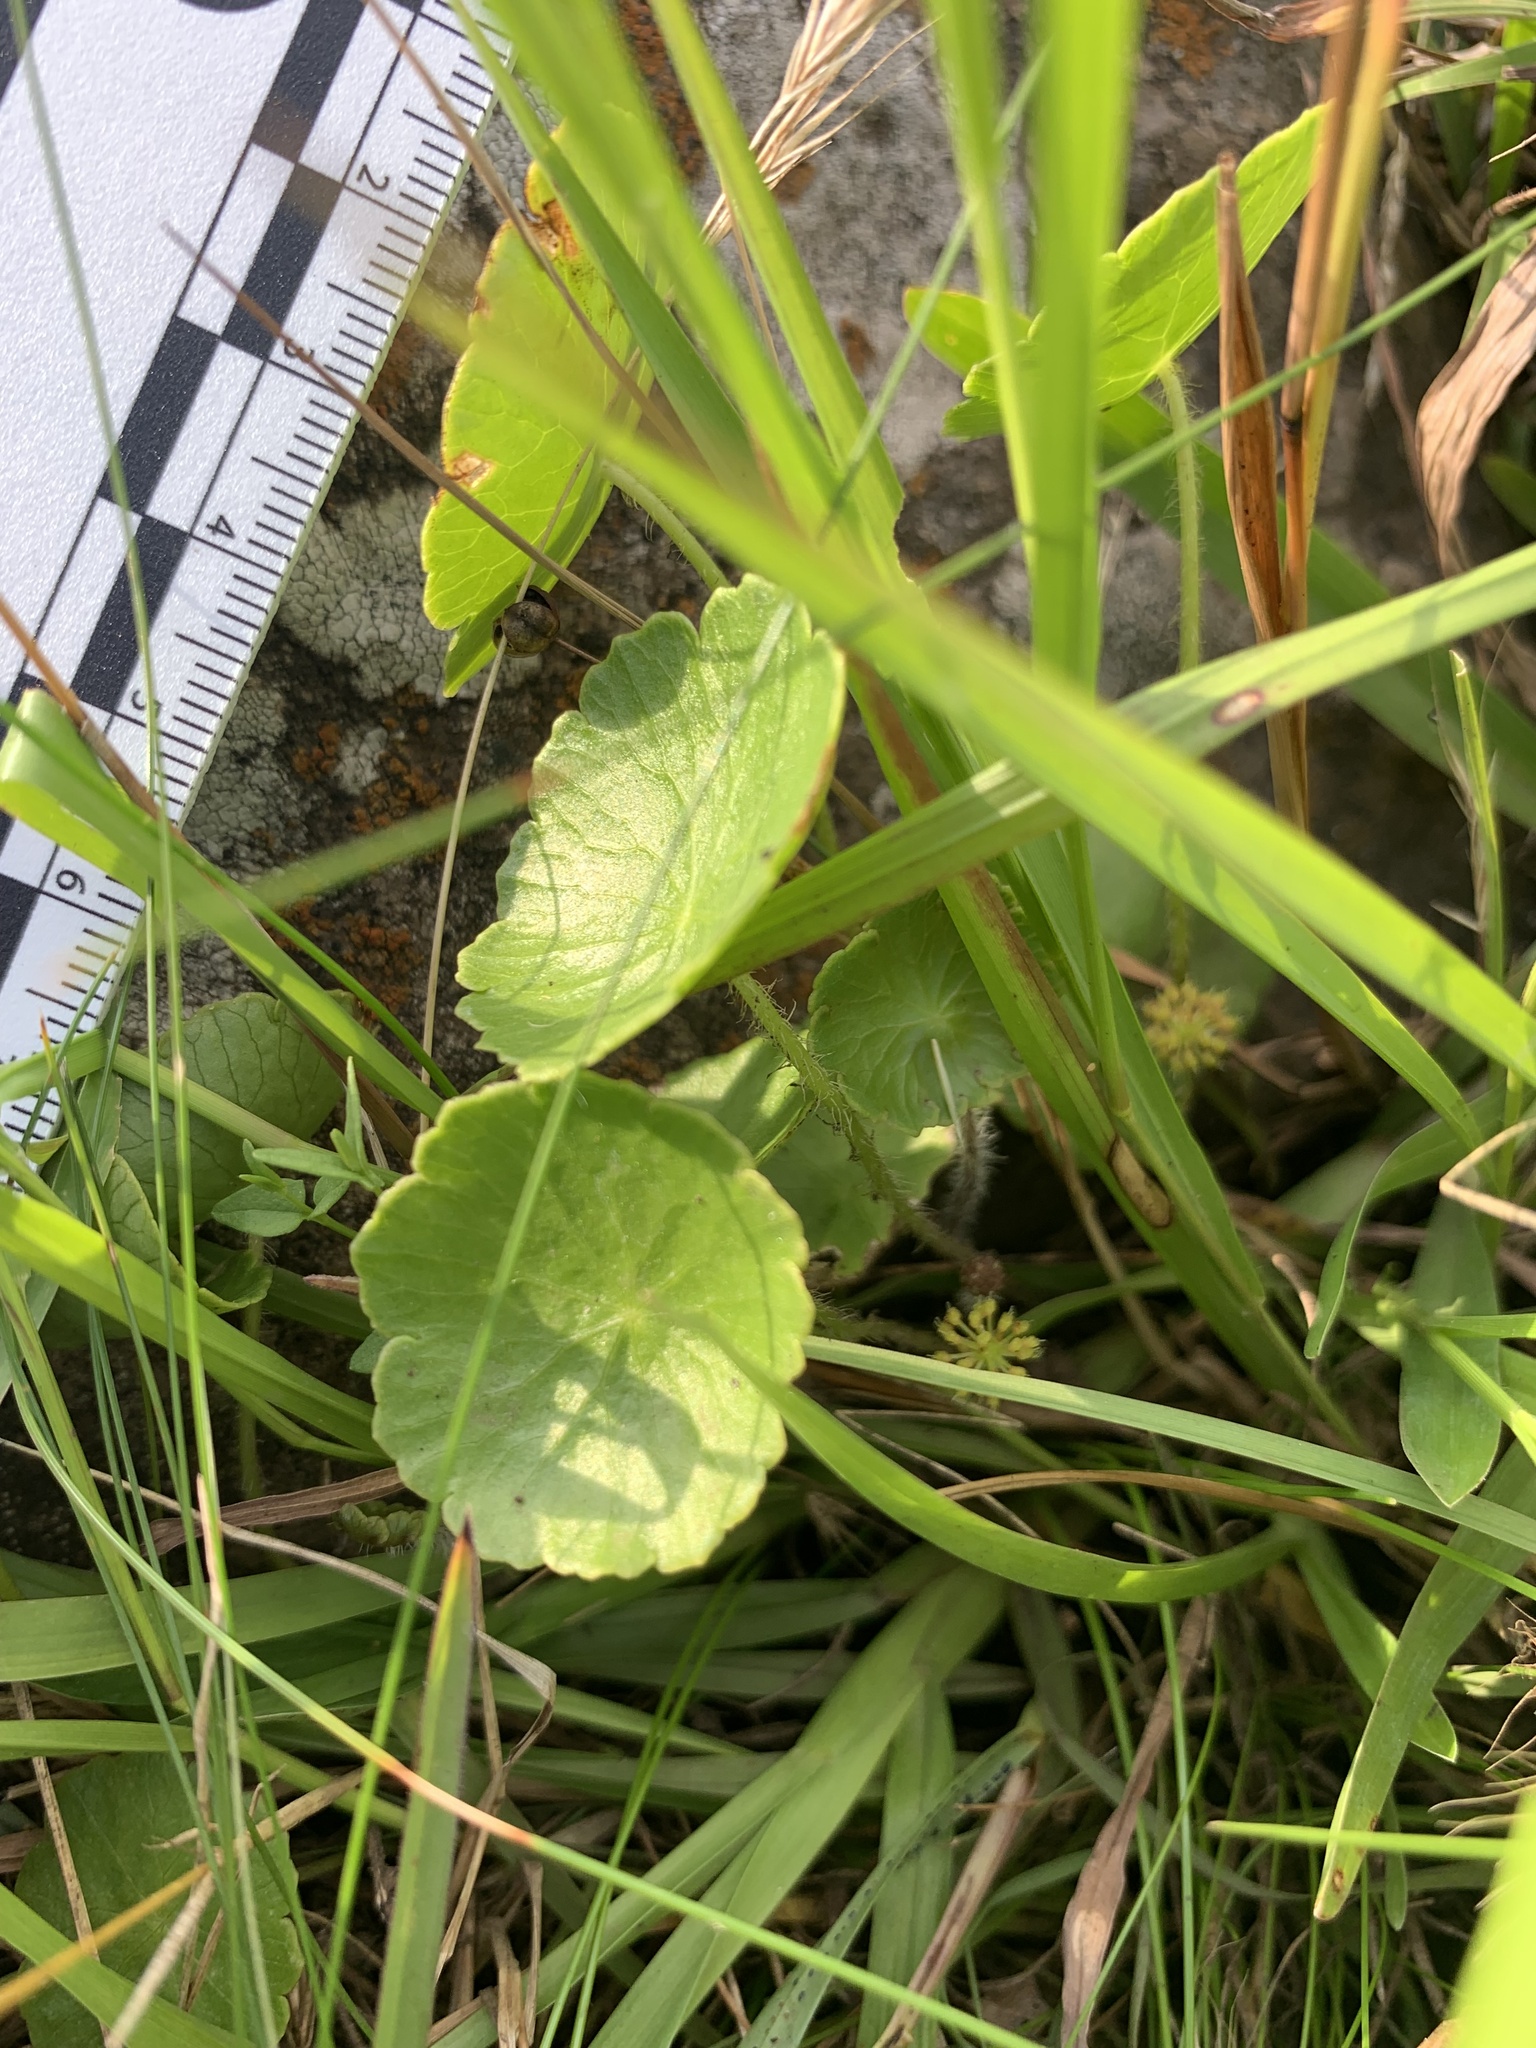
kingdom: Plantae
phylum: Tracheophyta
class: Magnoliopsida
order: Apiales
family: Araliaceae
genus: Hydrocotyle
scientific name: Hydrocotyle modesta
